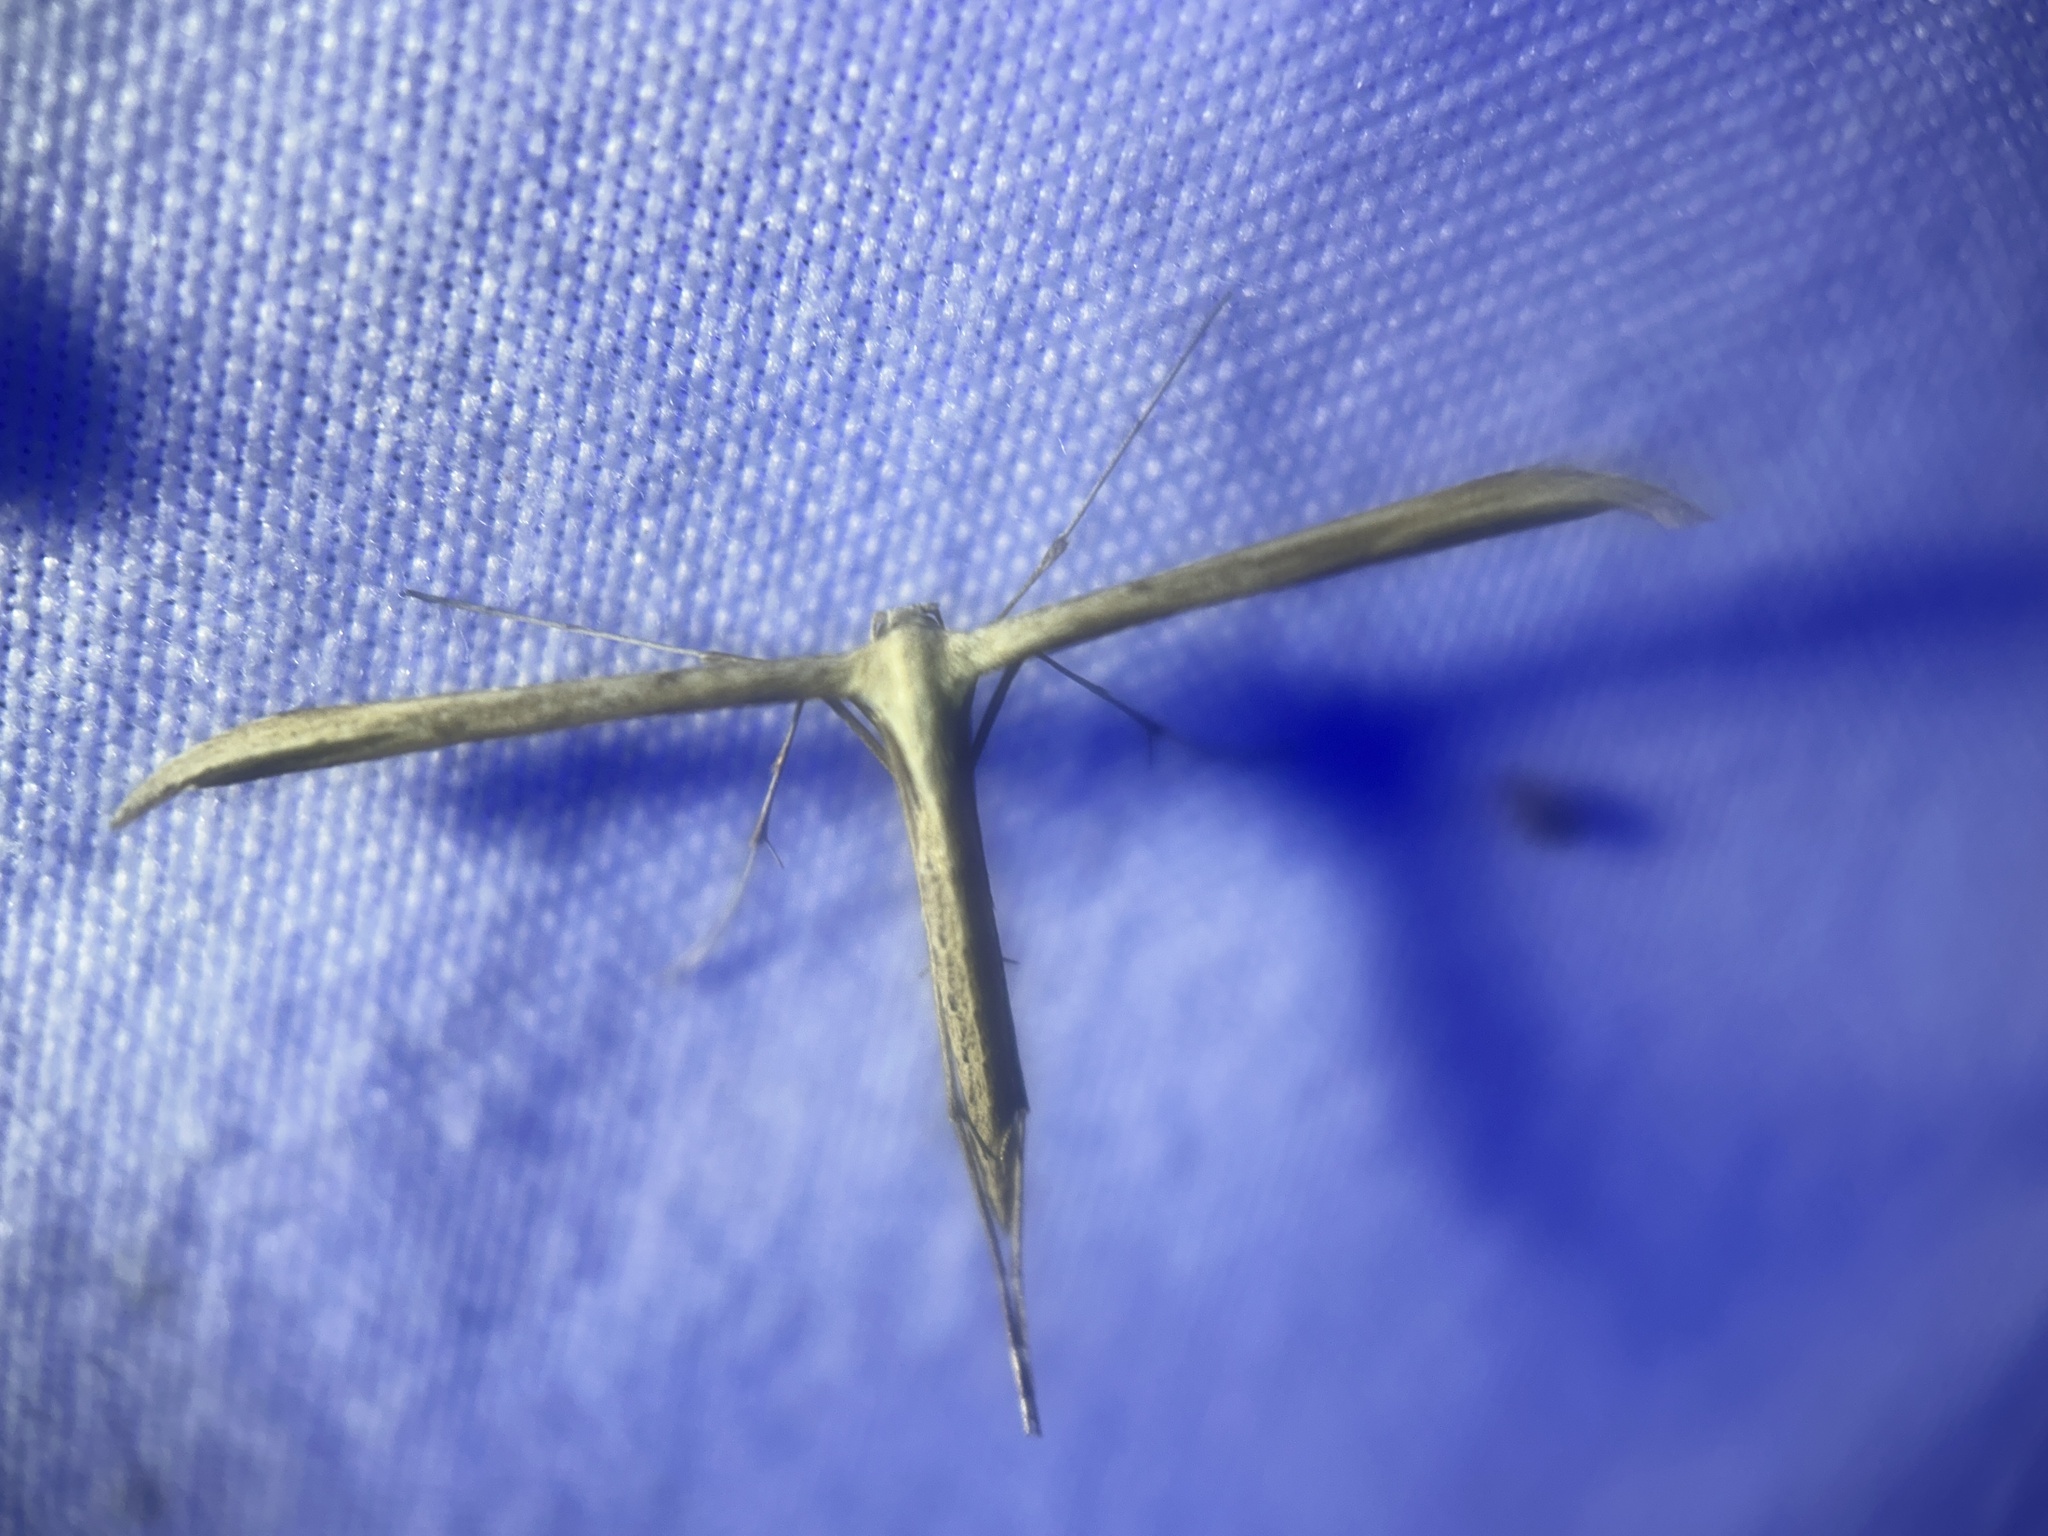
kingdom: Animalia
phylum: Arthropoda
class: Insecta
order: Lepidoptera
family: Pterophoridae
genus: Emmelina
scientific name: Emmelina monodactyla
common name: Common plume
